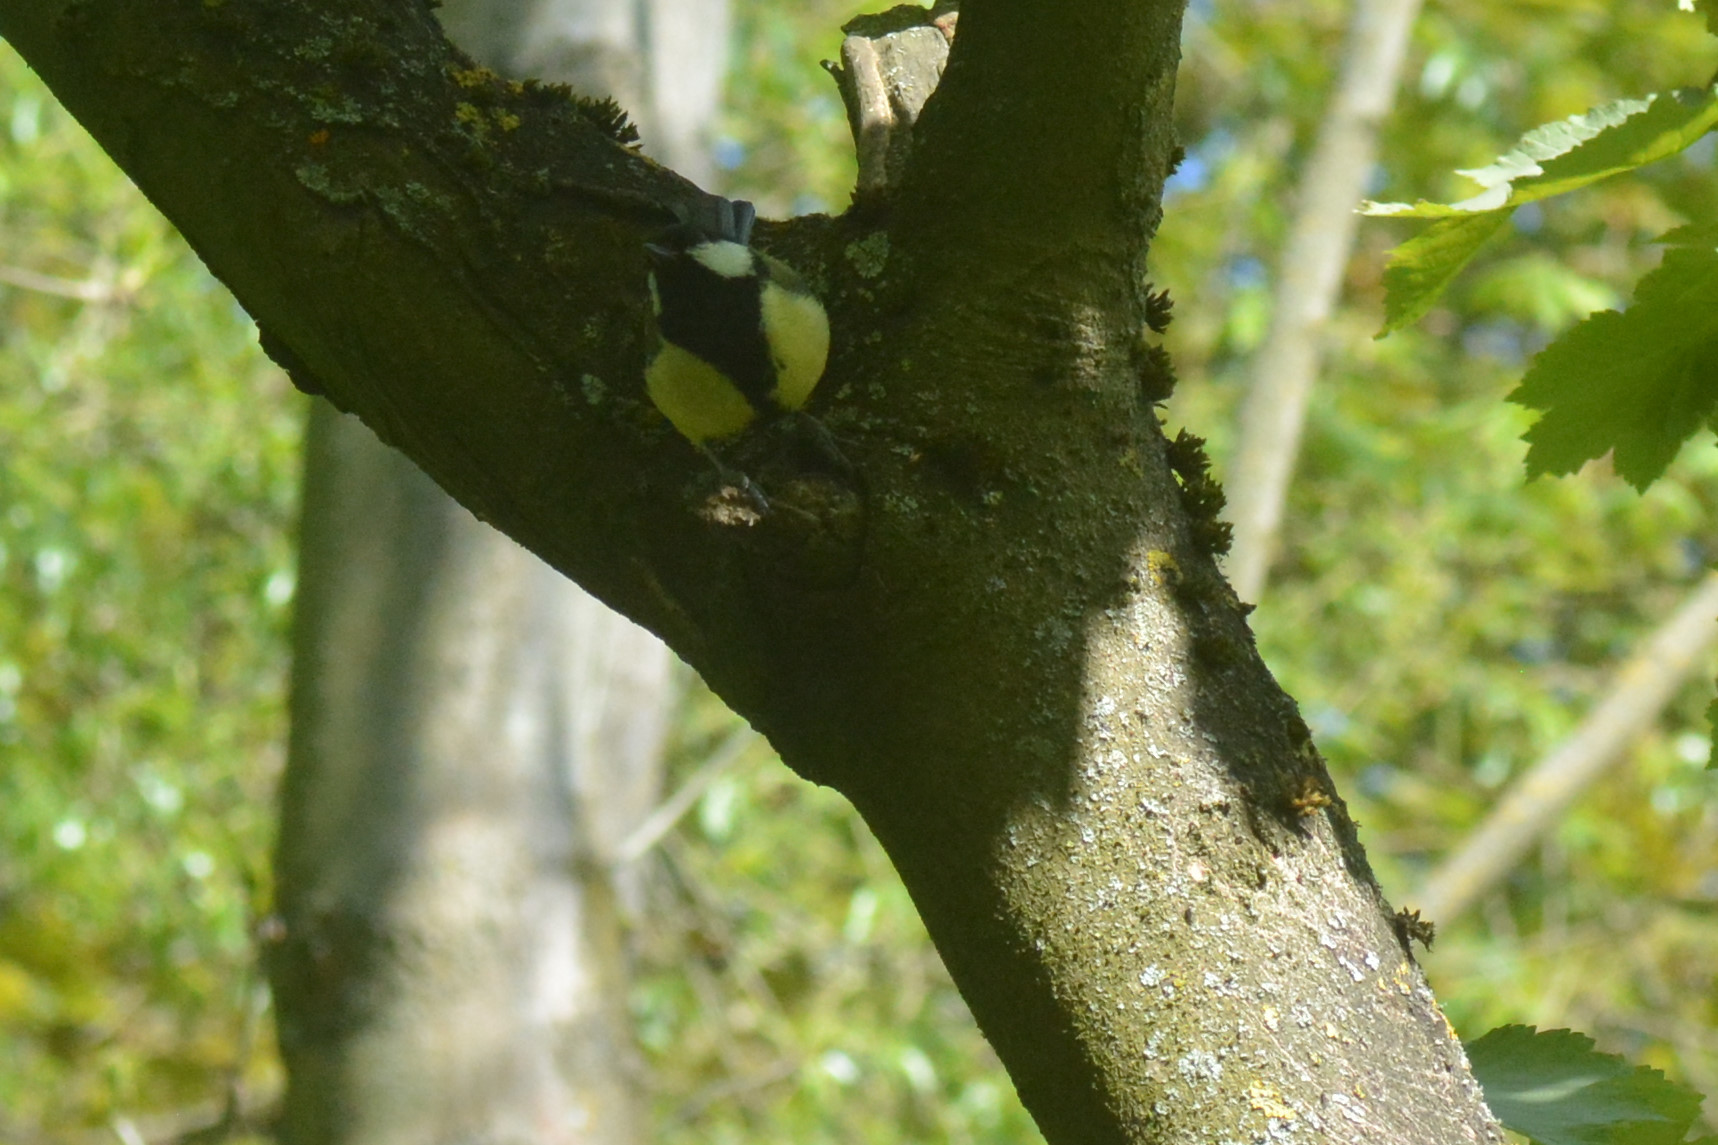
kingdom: Animalia
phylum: Chordata
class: Aves
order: Passeriformes
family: Paridae
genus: Parus
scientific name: Parus major
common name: Great tit
